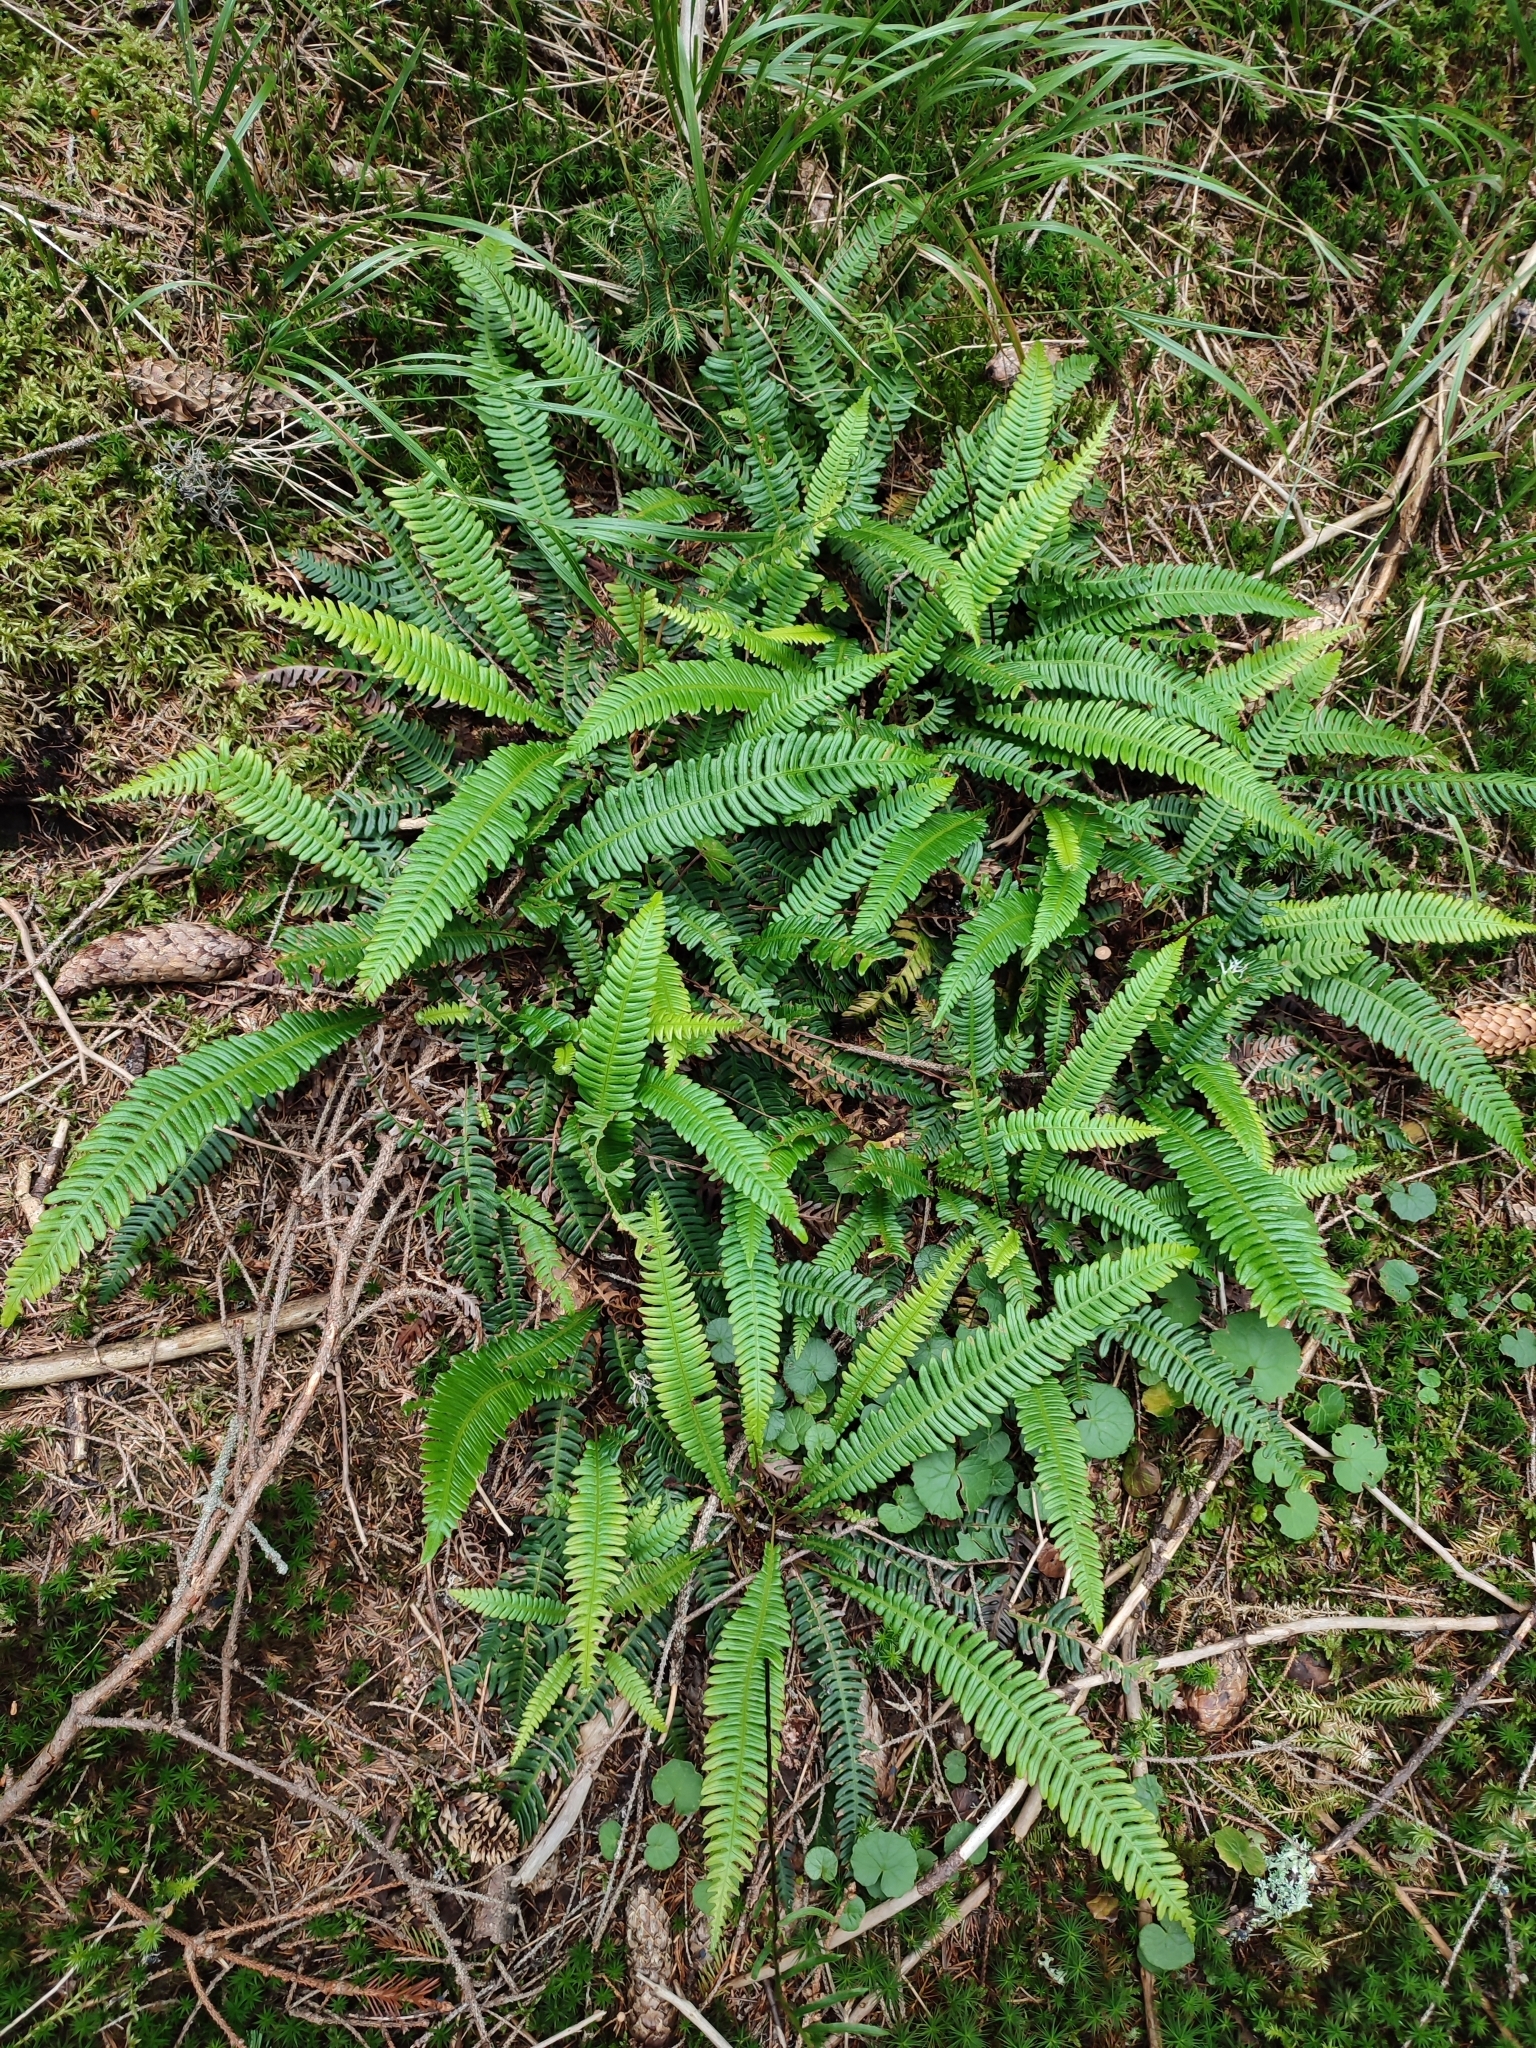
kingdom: Plantae
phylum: Tracheophyta
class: Polypodiopsida
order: Polypodiales
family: Blechnaceae
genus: Struthiopteris
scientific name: Struthiopteris spicant
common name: Deer fern
